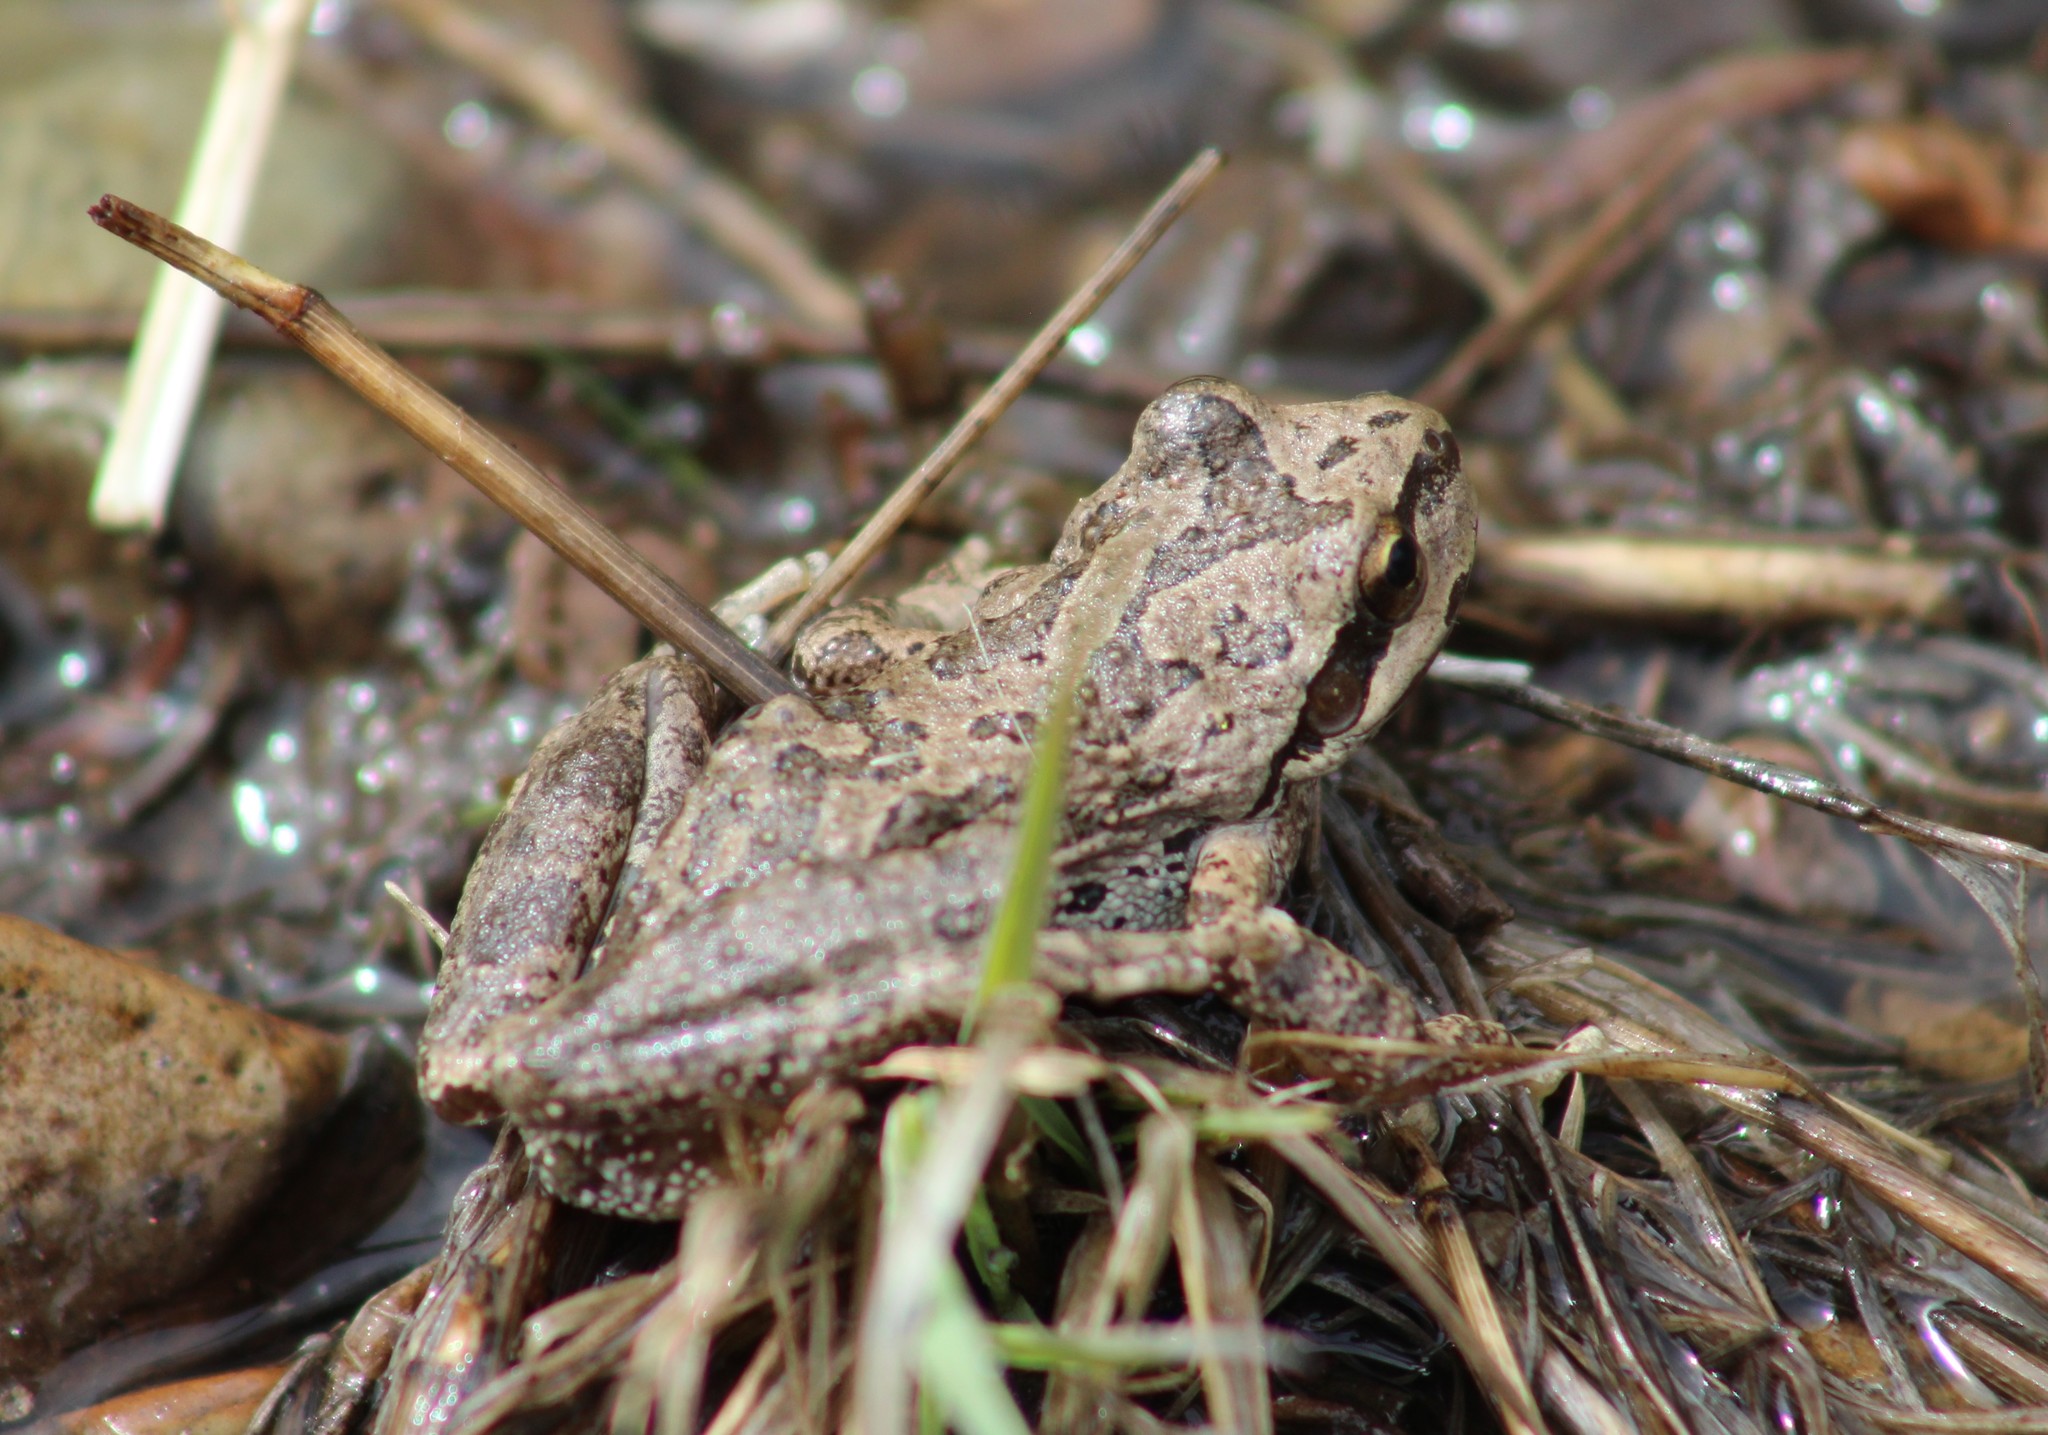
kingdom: Animalia
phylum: Chordata
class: Amphibia
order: Anura
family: Hylidae
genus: Pseudacris
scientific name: Pseudacris regilla
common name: Pacific chorus frog
